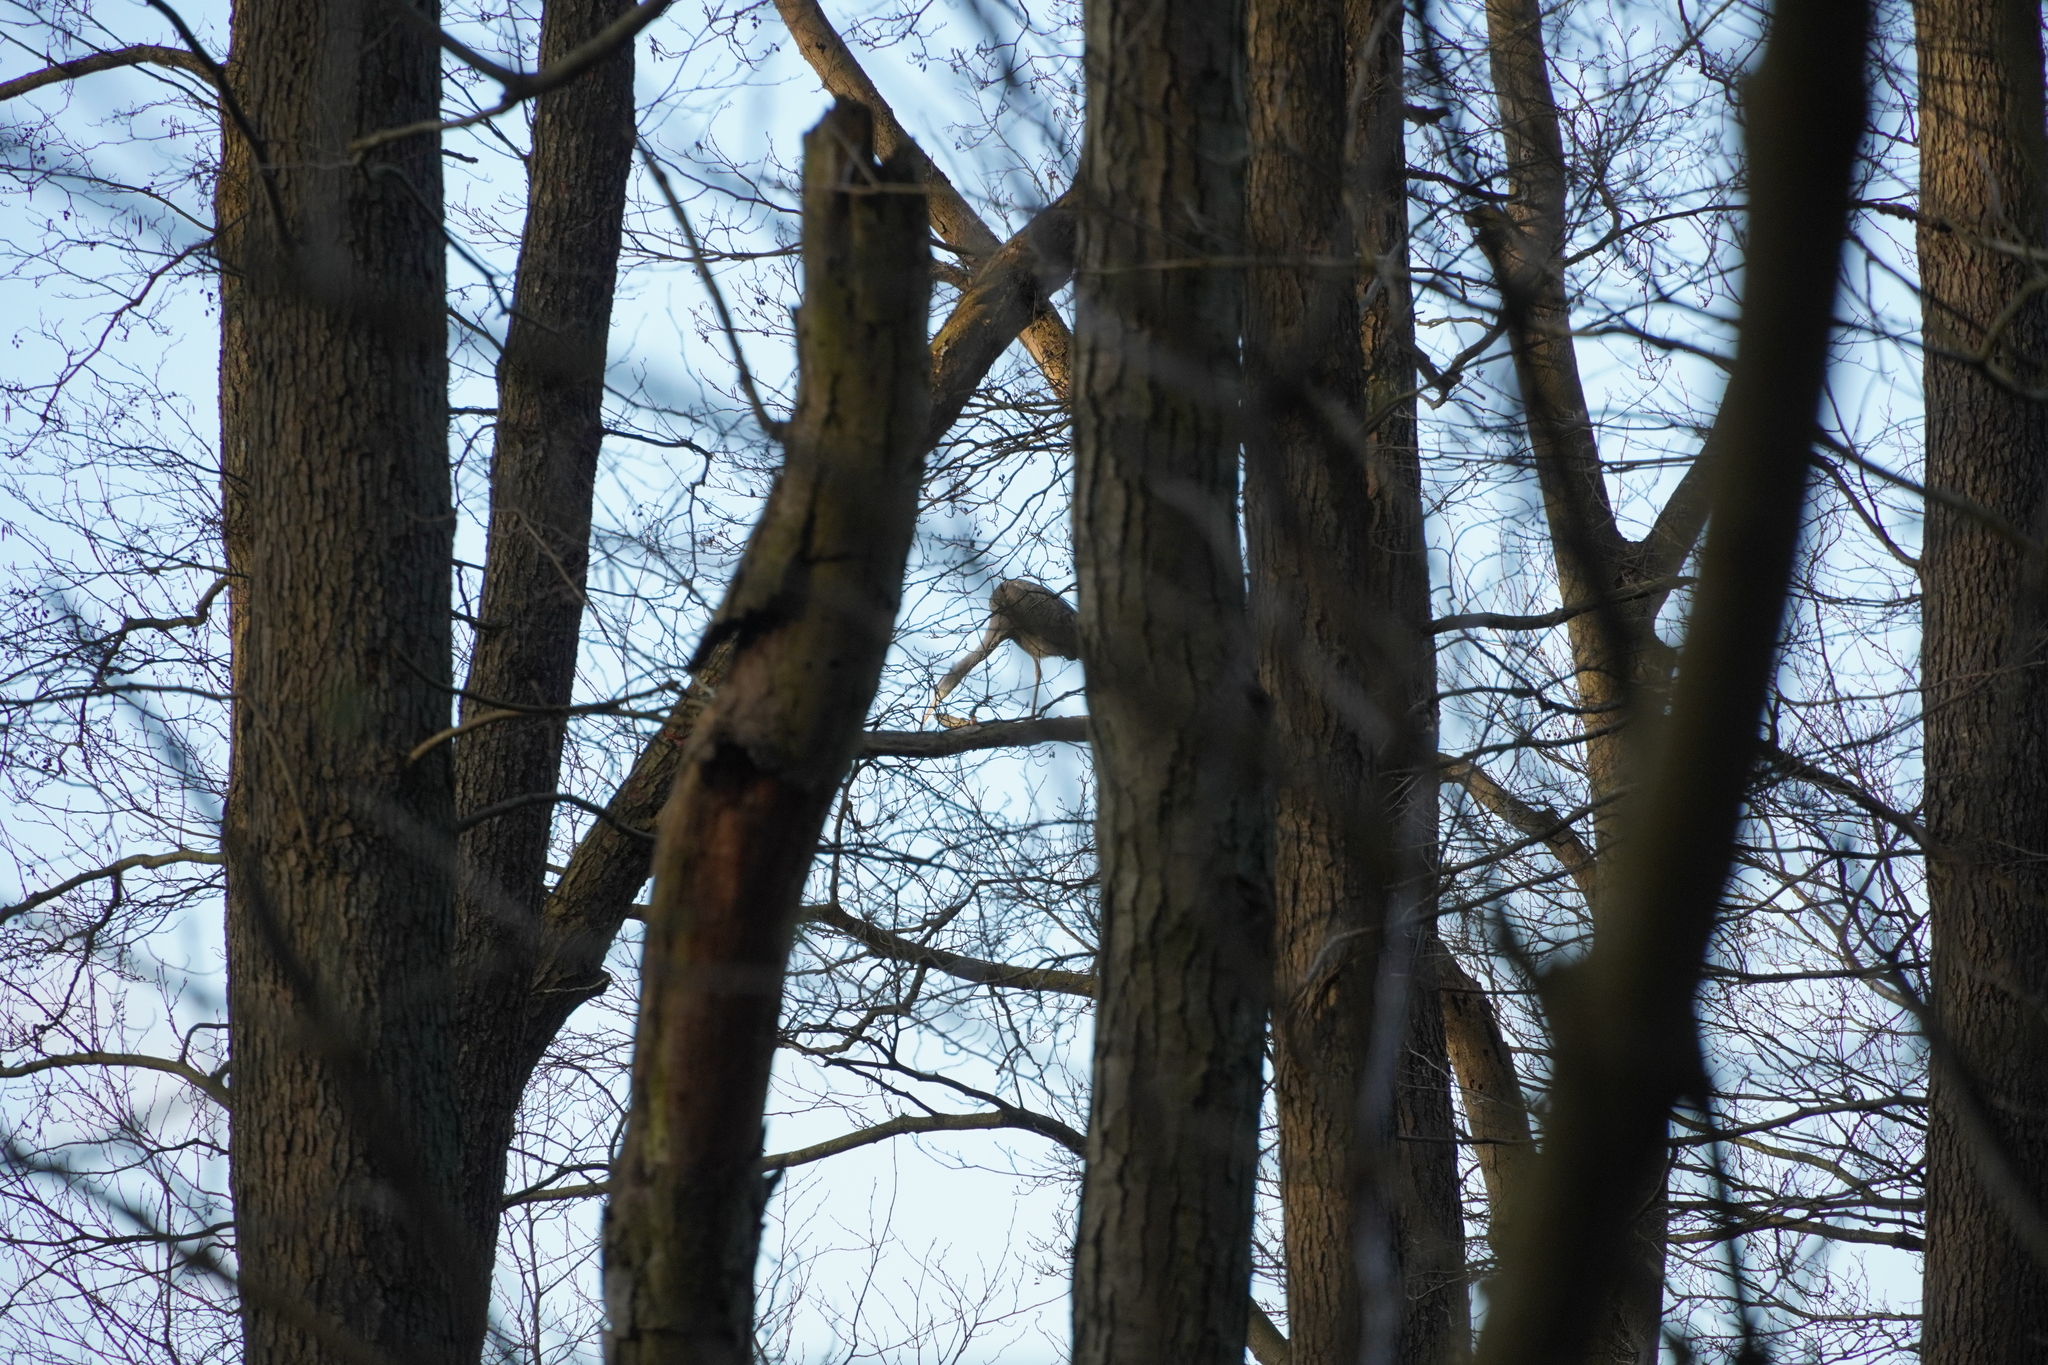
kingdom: Animalia
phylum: Chordata
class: Aves
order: Pelecaniformes
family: Ardeidae
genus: Ardea
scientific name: Ardea cinerea
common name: Grey heron
